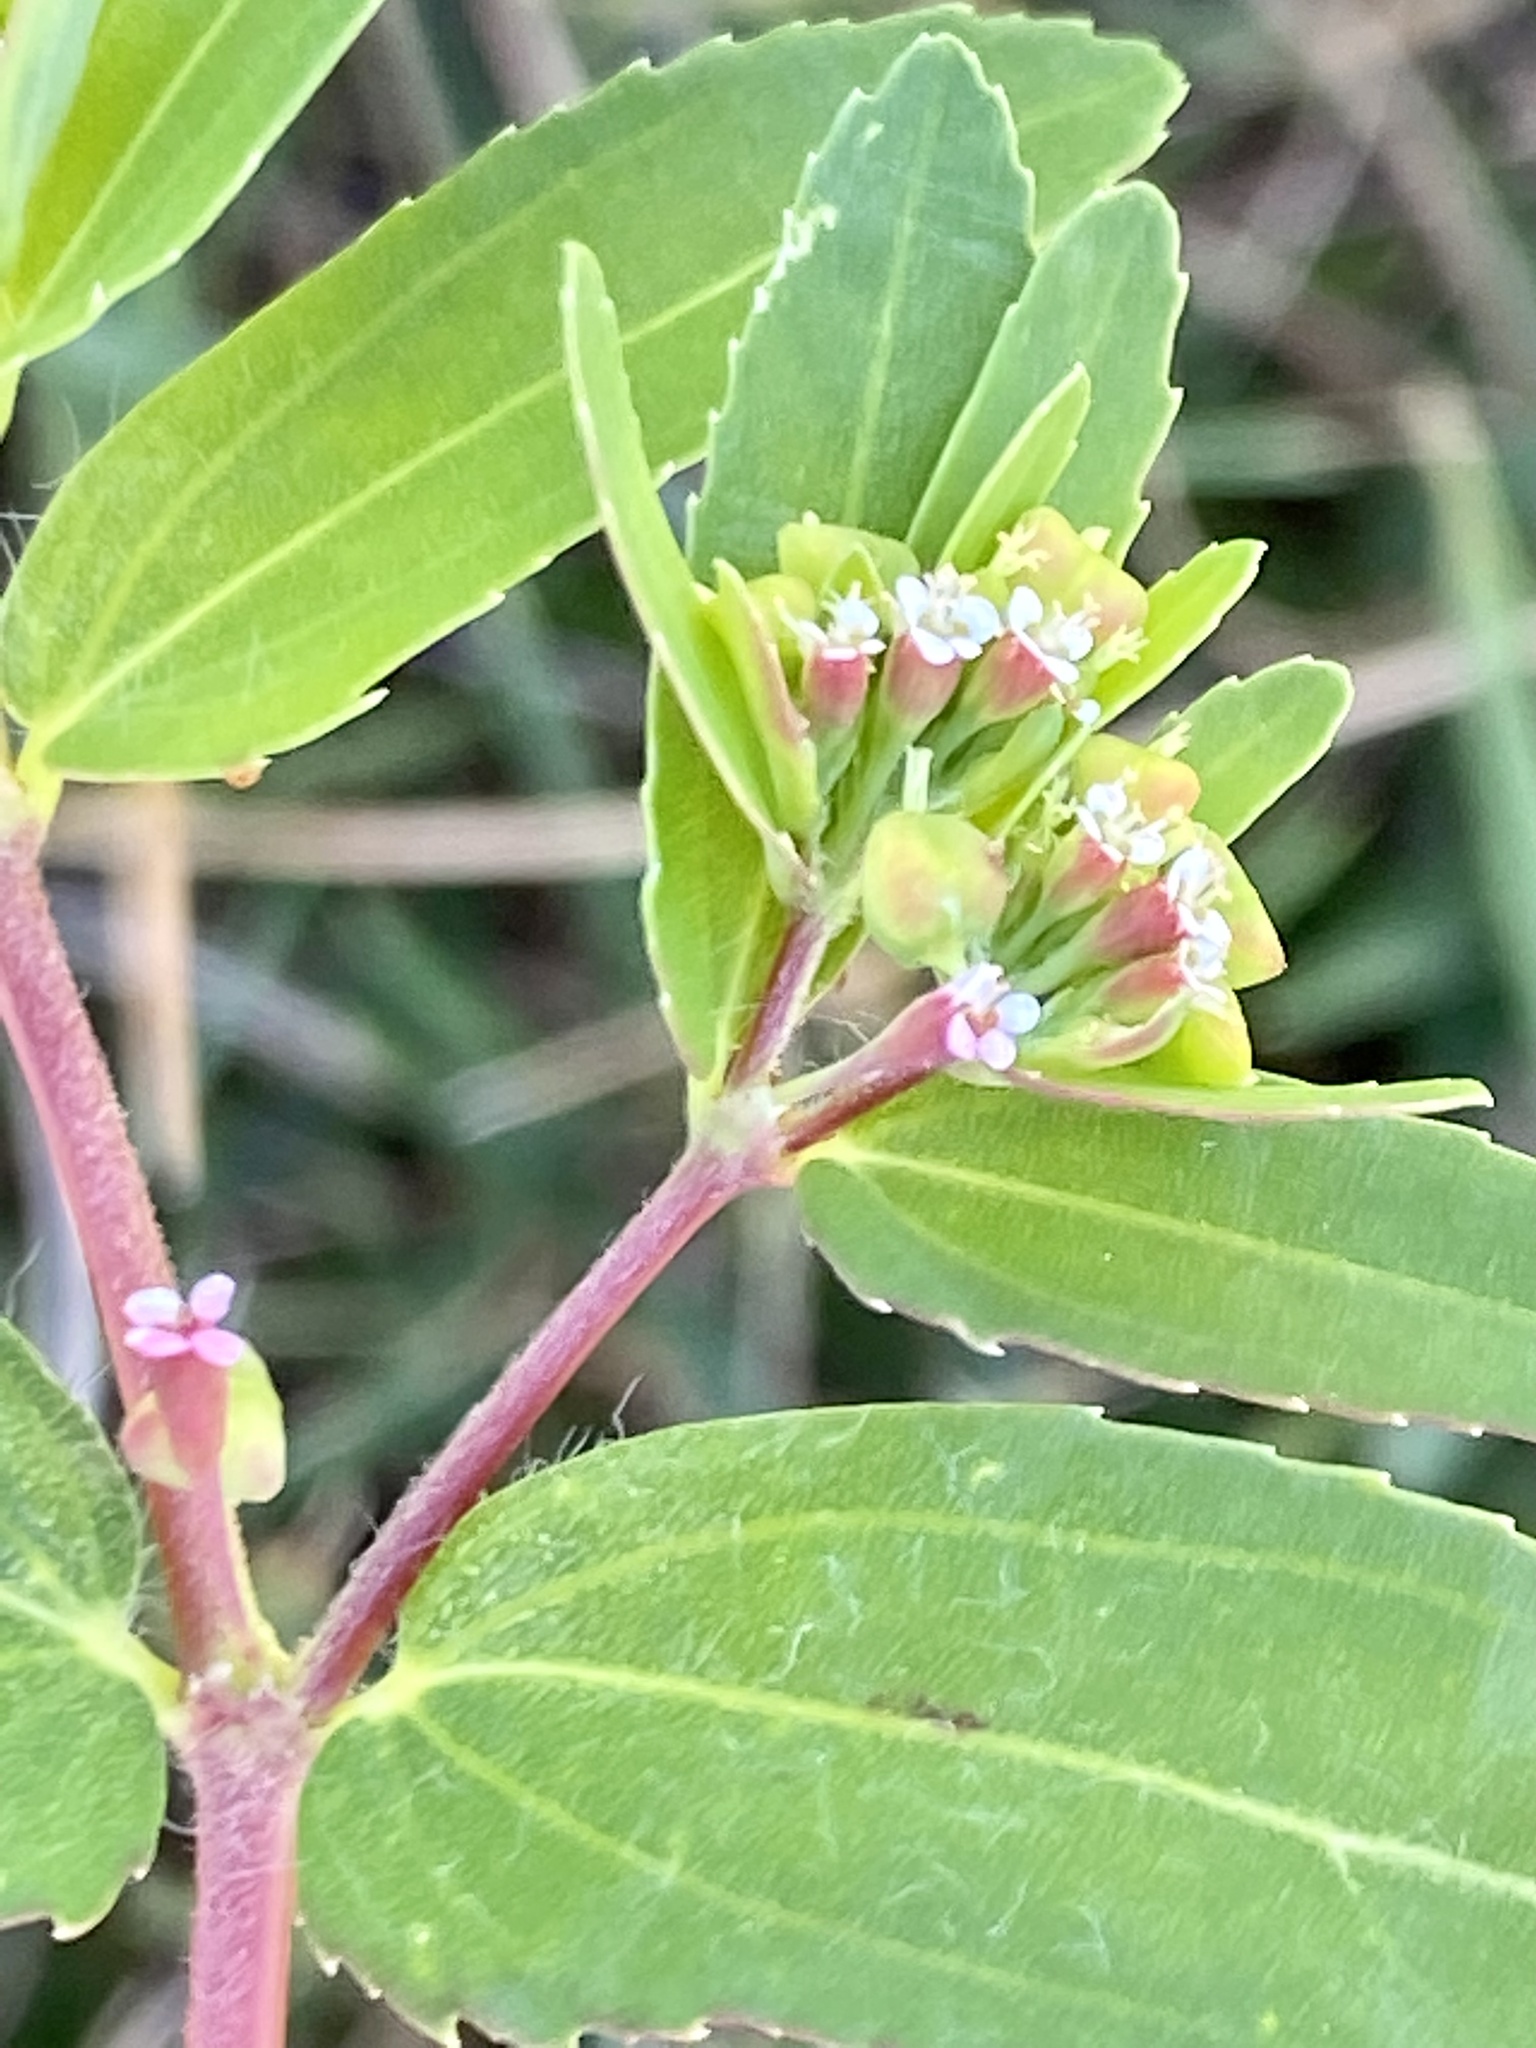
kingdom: Plantae
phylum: Tracheophyta
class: Magnoliopsida
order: Malpighiales
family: Euphorbiaceae
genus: Euphorbia
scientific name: Euphorbia nutans
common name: Eyebane
